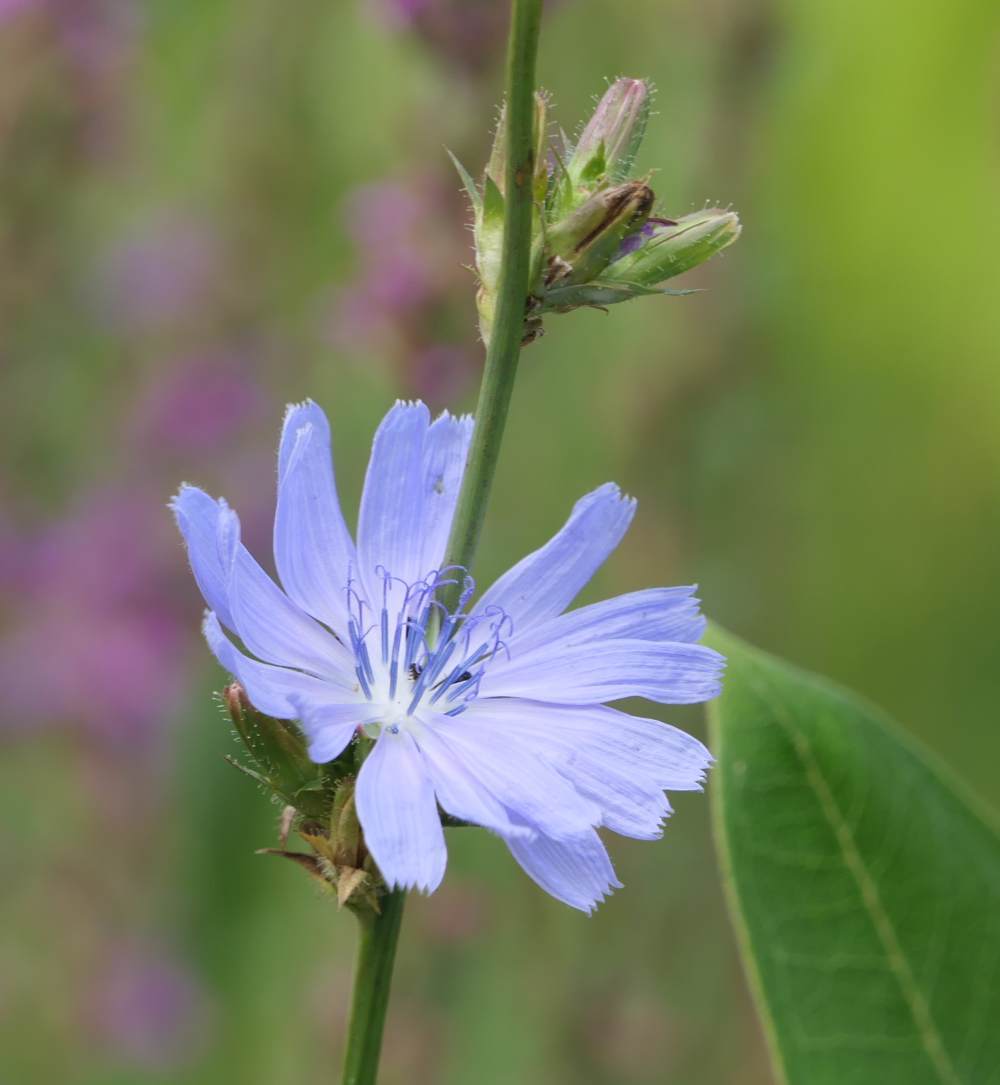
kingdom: Plantae
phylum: Tracheophyta
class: Magnoliopsida
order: Asterales
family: Asteraceae
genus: Cichorium
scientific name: Cichorium intybus
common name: Chicory
